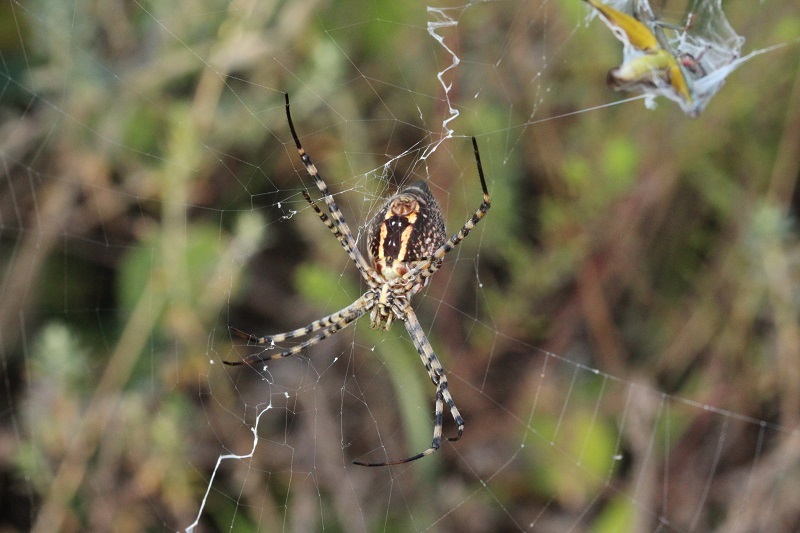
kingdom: Animalia
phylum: Arthropoda
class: Arachnida
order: Araneae
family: Araneidae
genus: Argiope
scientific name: Argiope trifasciata
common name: Banded garden spider
